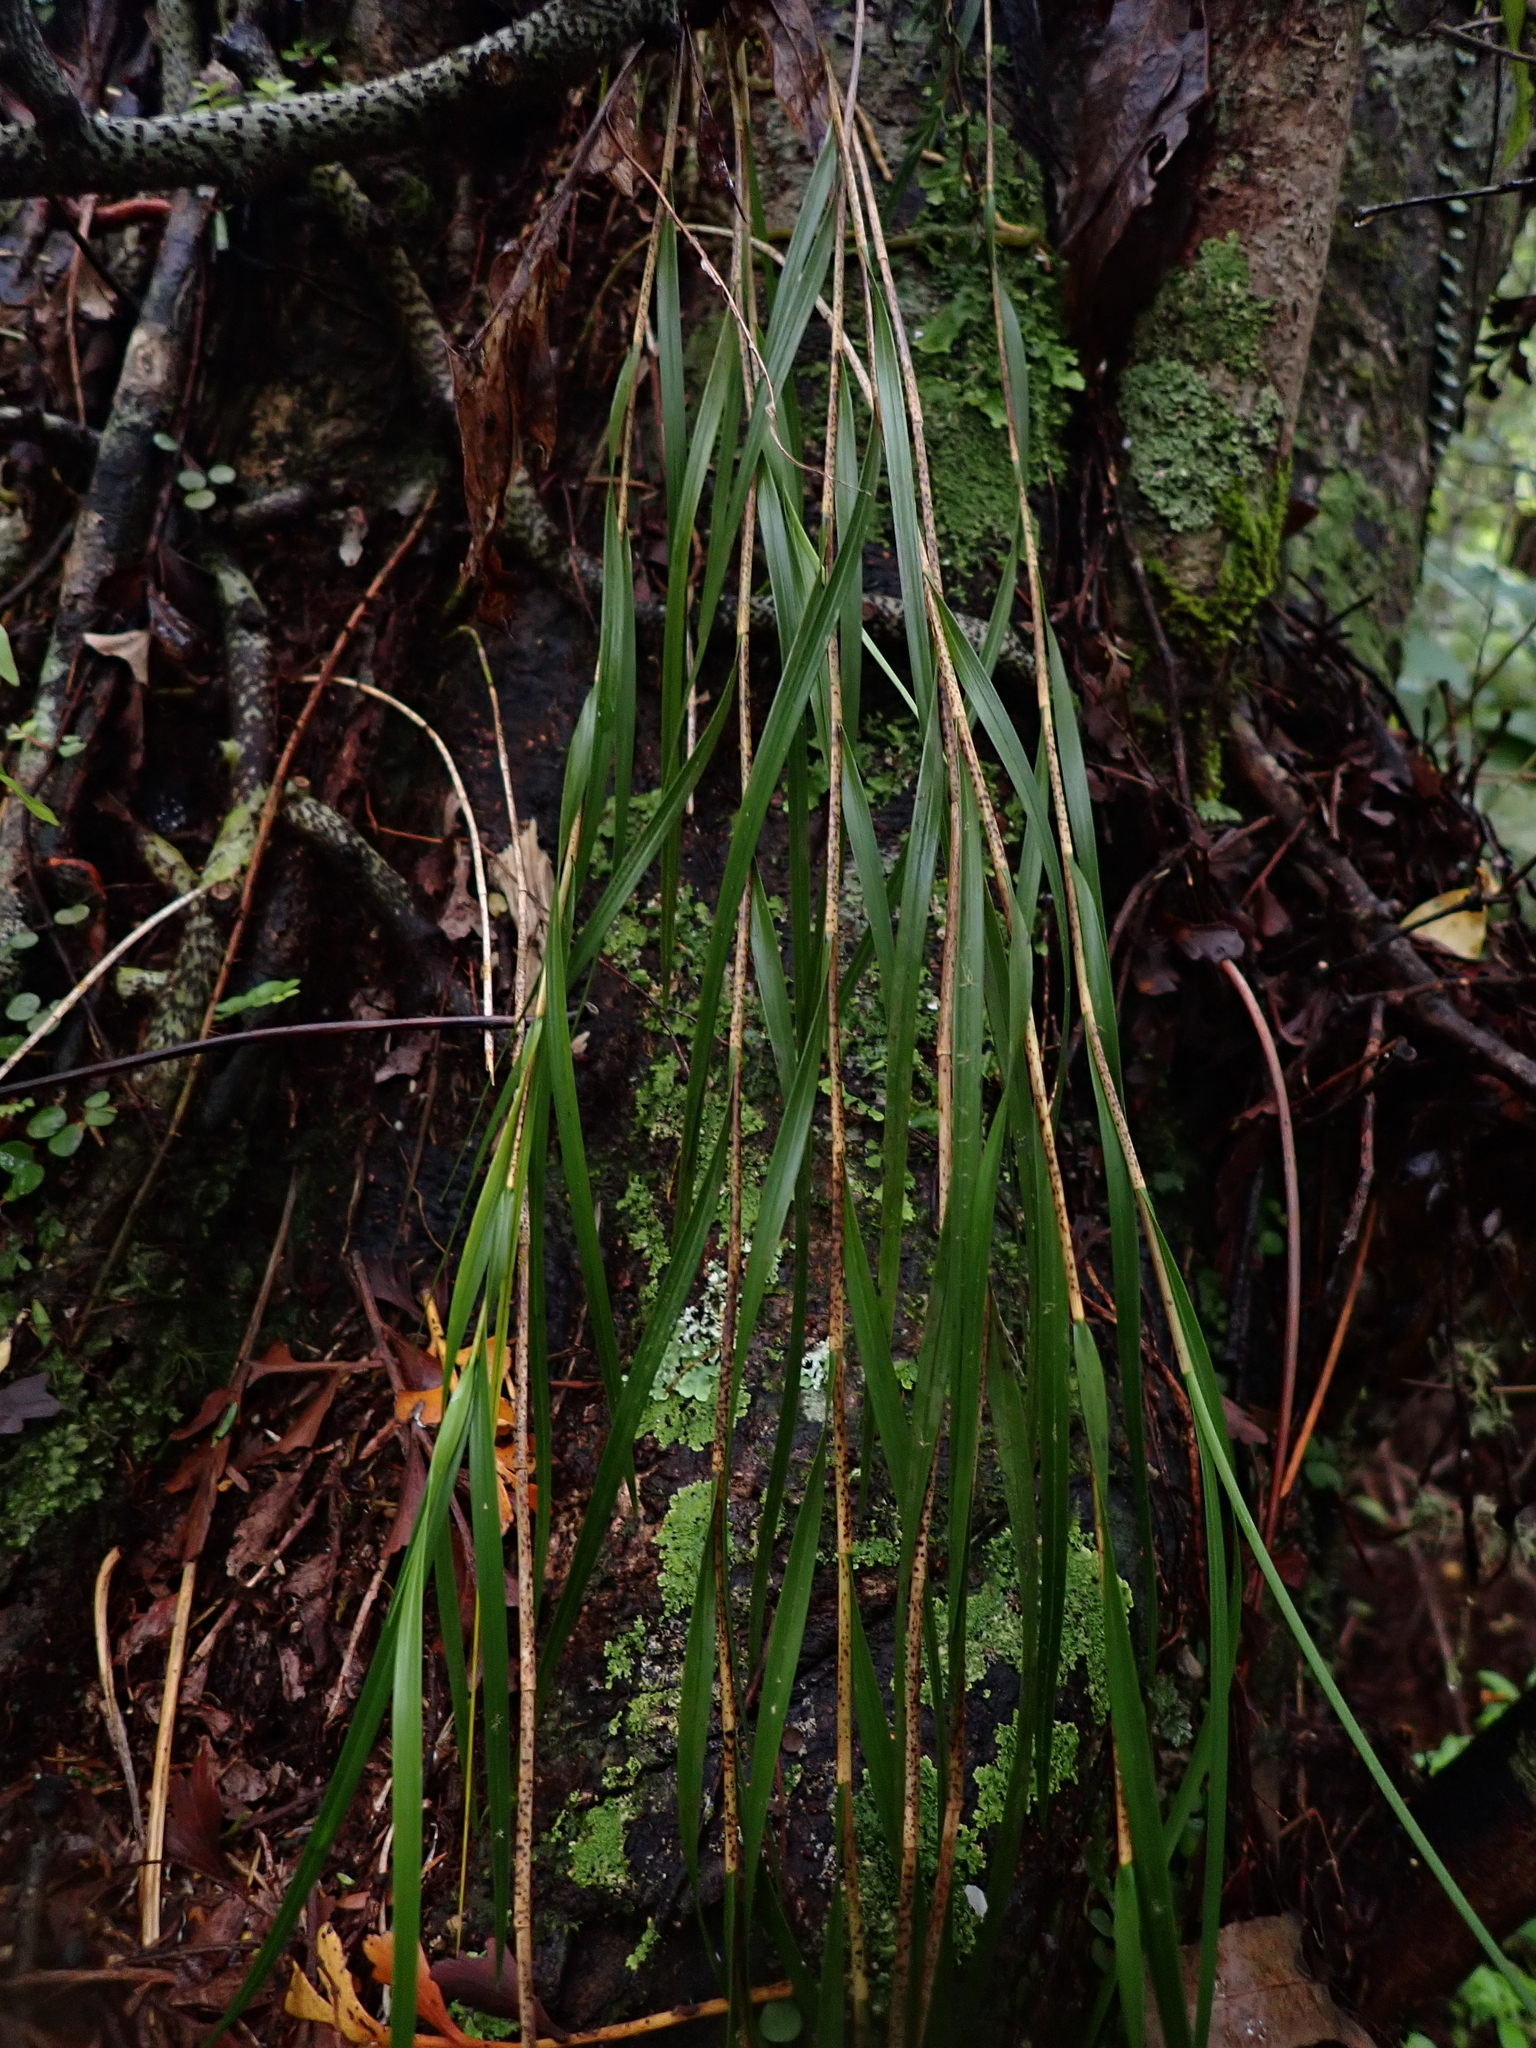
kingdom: Plantae
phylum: Tracheophyta
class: Liliopsida
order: Asparagales
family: Orchidaceae
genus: Earina
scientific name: Earina mucronata
